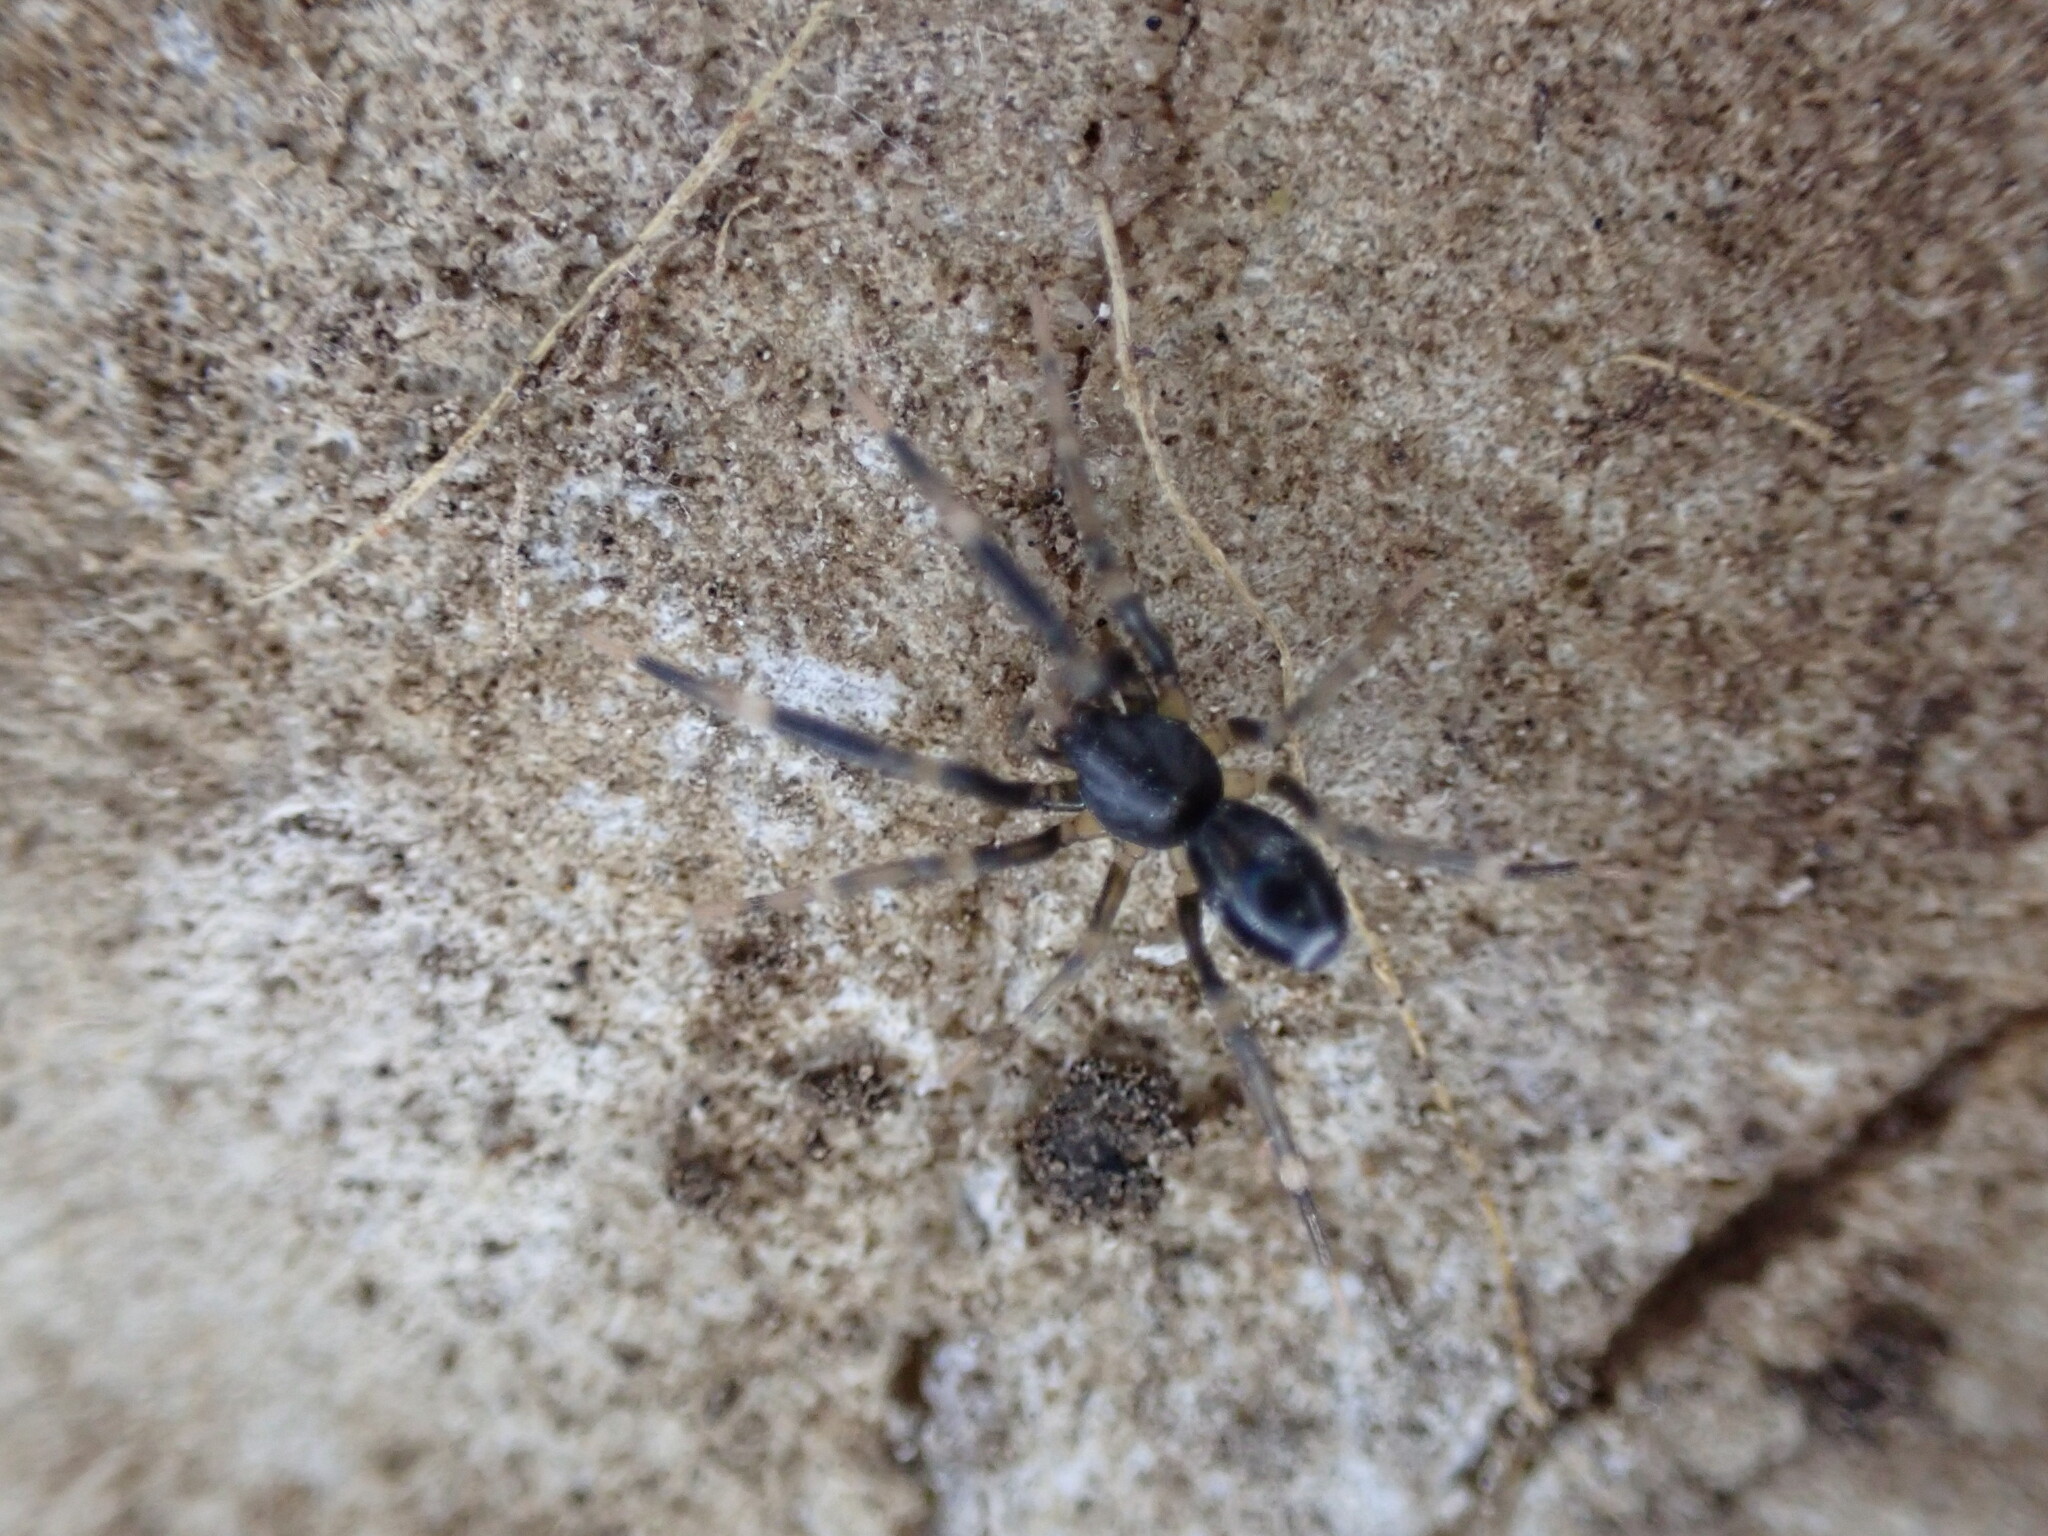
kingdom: Animalia
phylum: Arthropoda
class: Arachnida
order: Araneae
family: Phrurolithidae
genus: Liophrurillus
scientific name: Liophrurillus flavitarsis
